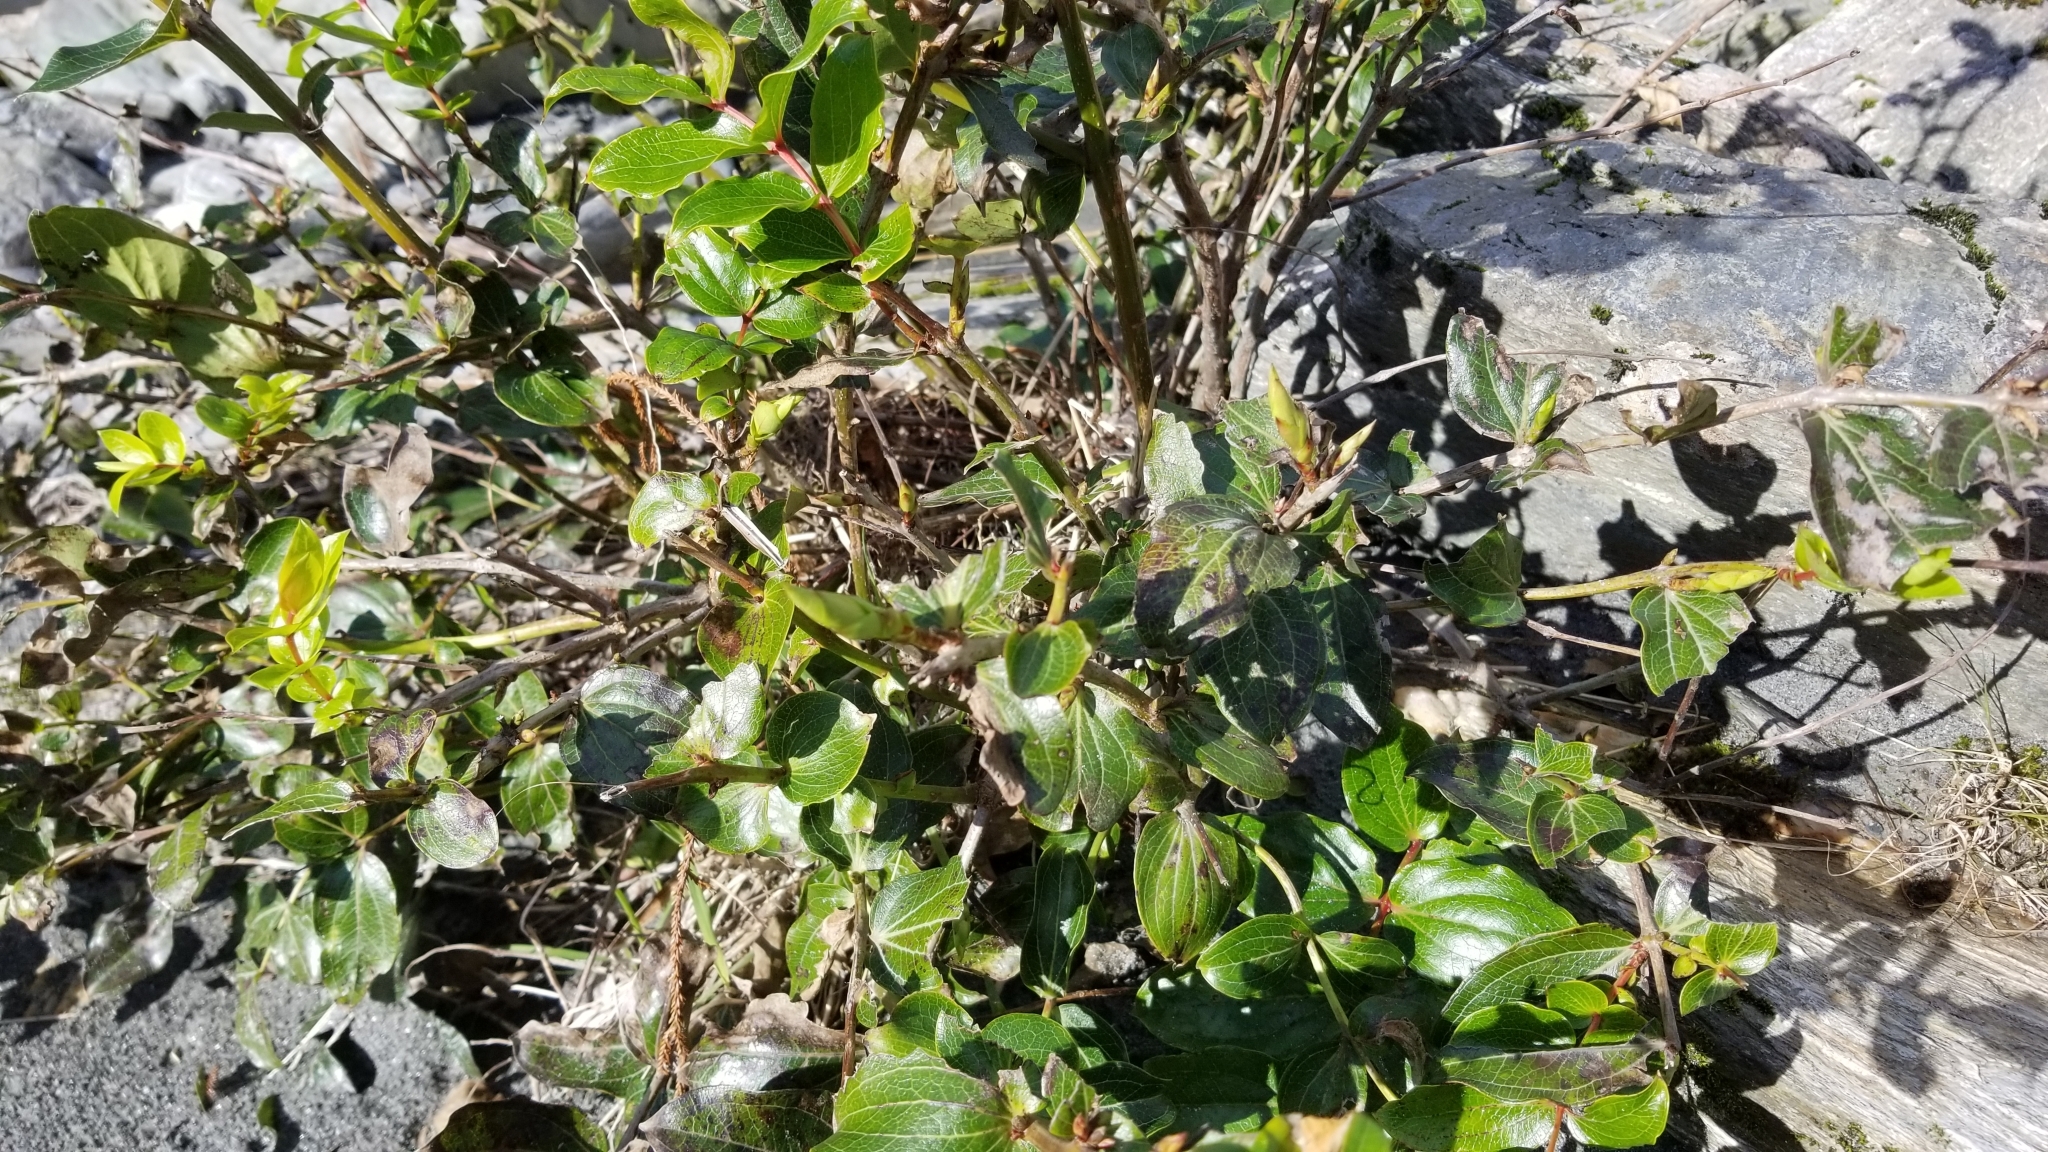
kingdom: Plantae
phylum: Tracheophyta
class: Magnoliopsida
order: Cucurbitales
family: Coriariaceae
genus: Coriaria
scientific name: Coriaria arborea
